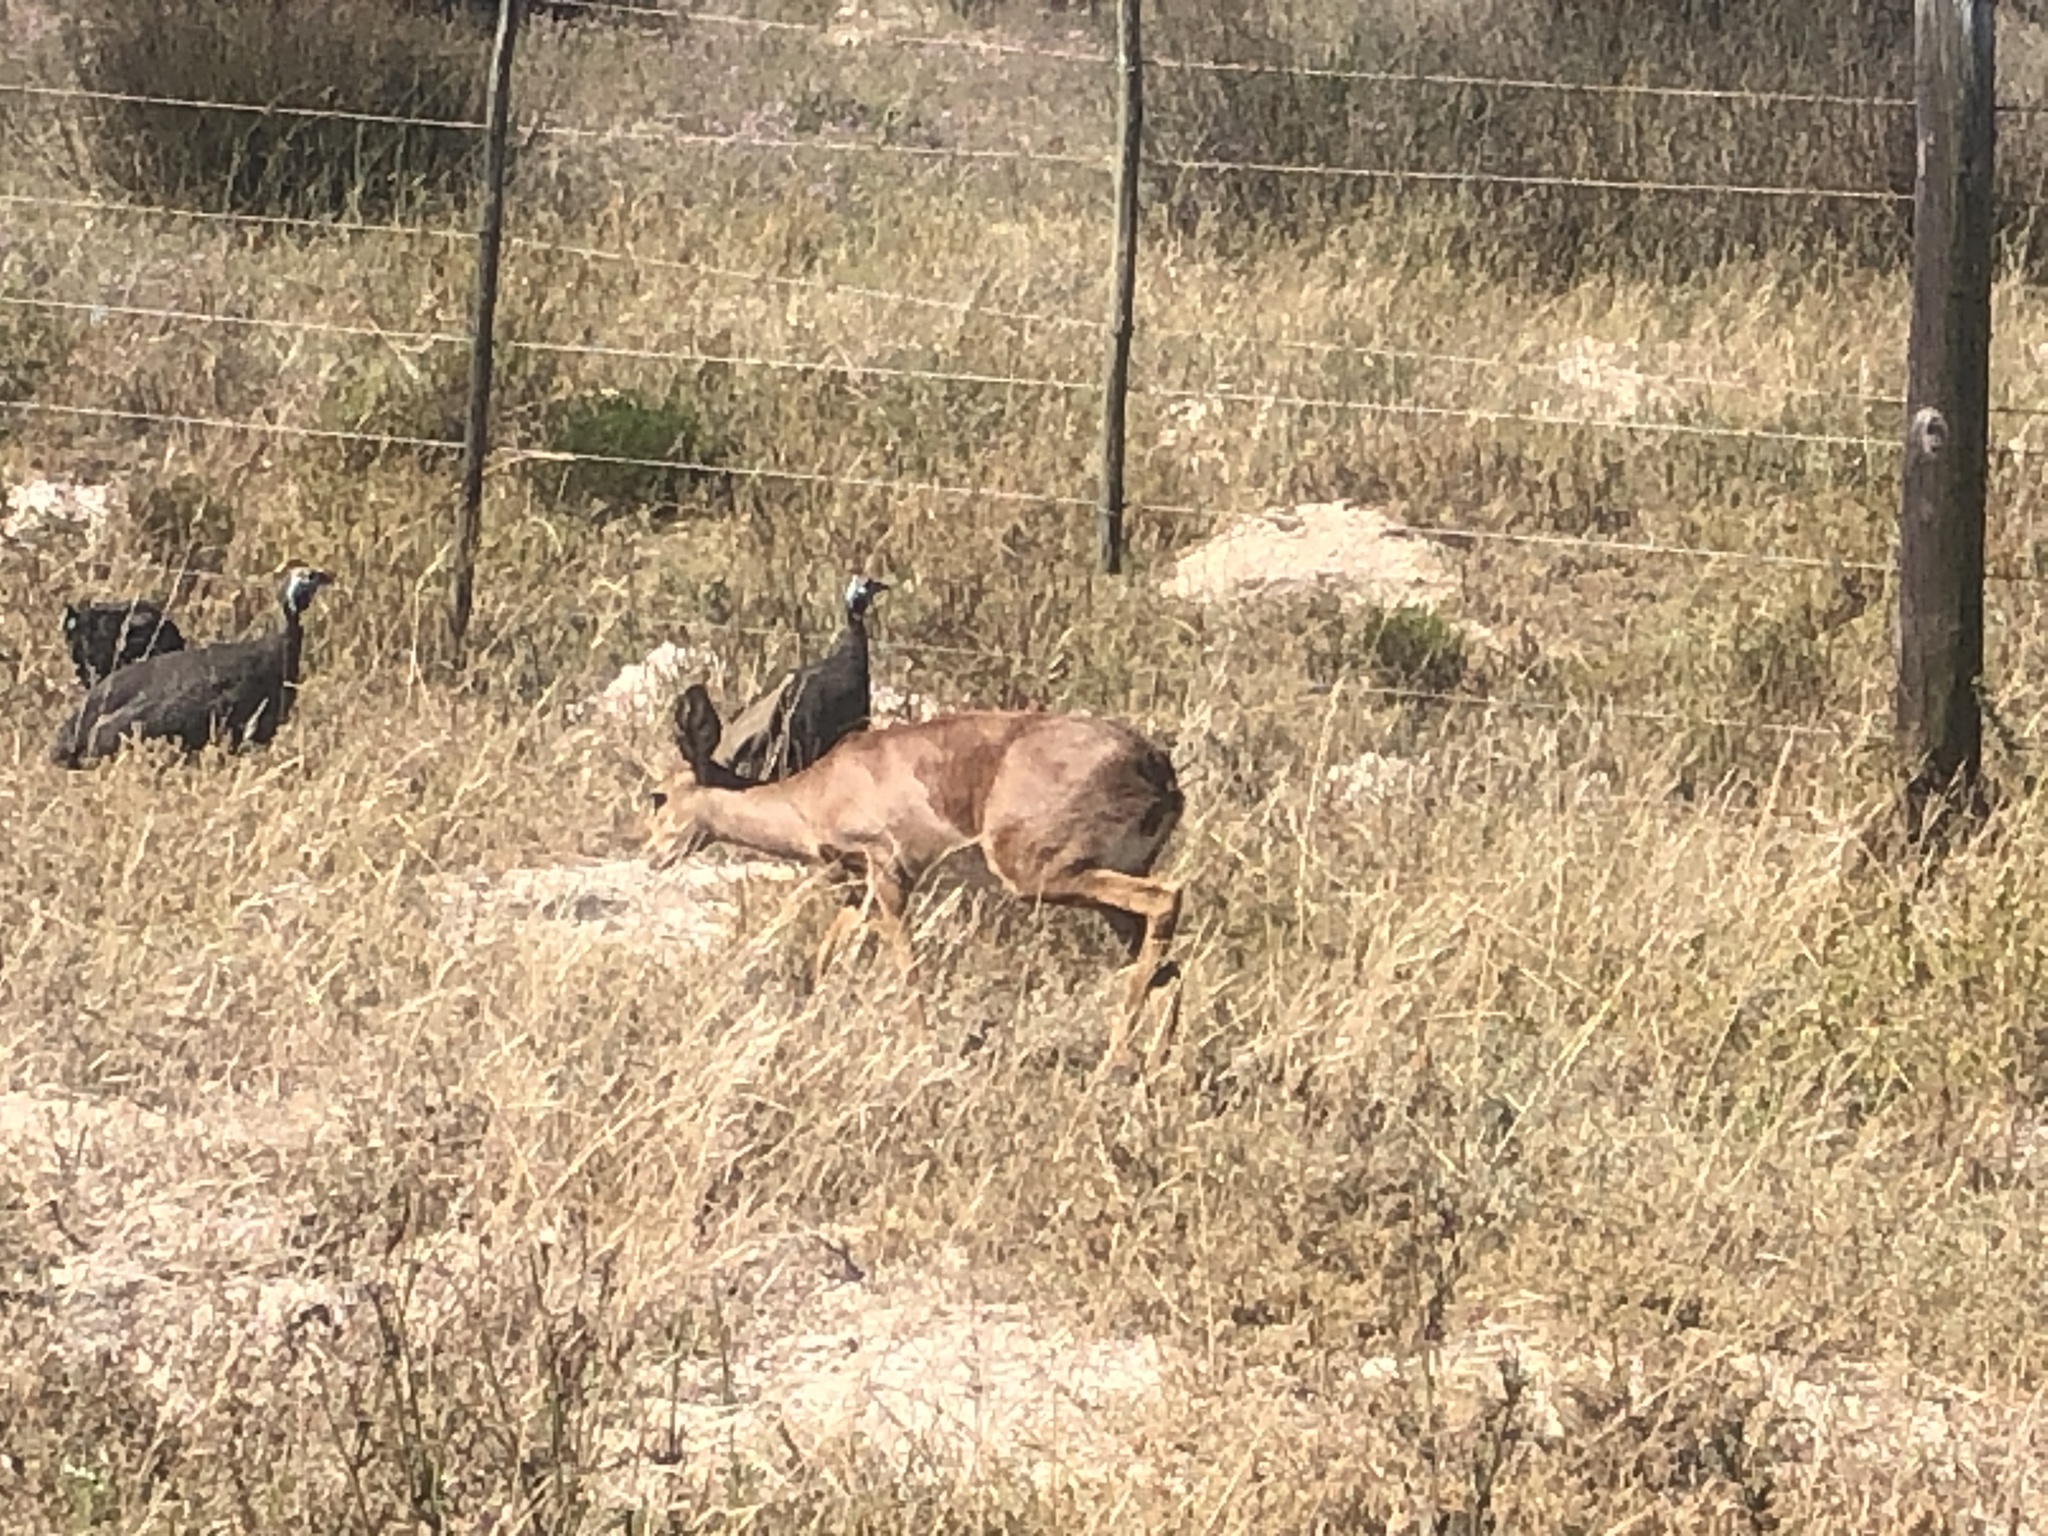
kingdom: Animalia
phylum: Chordata
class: Mammalia
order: Artiodactyla
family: Bovidae
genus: Raphicerus
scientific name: Raphicerus campestris
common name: Steenbok
